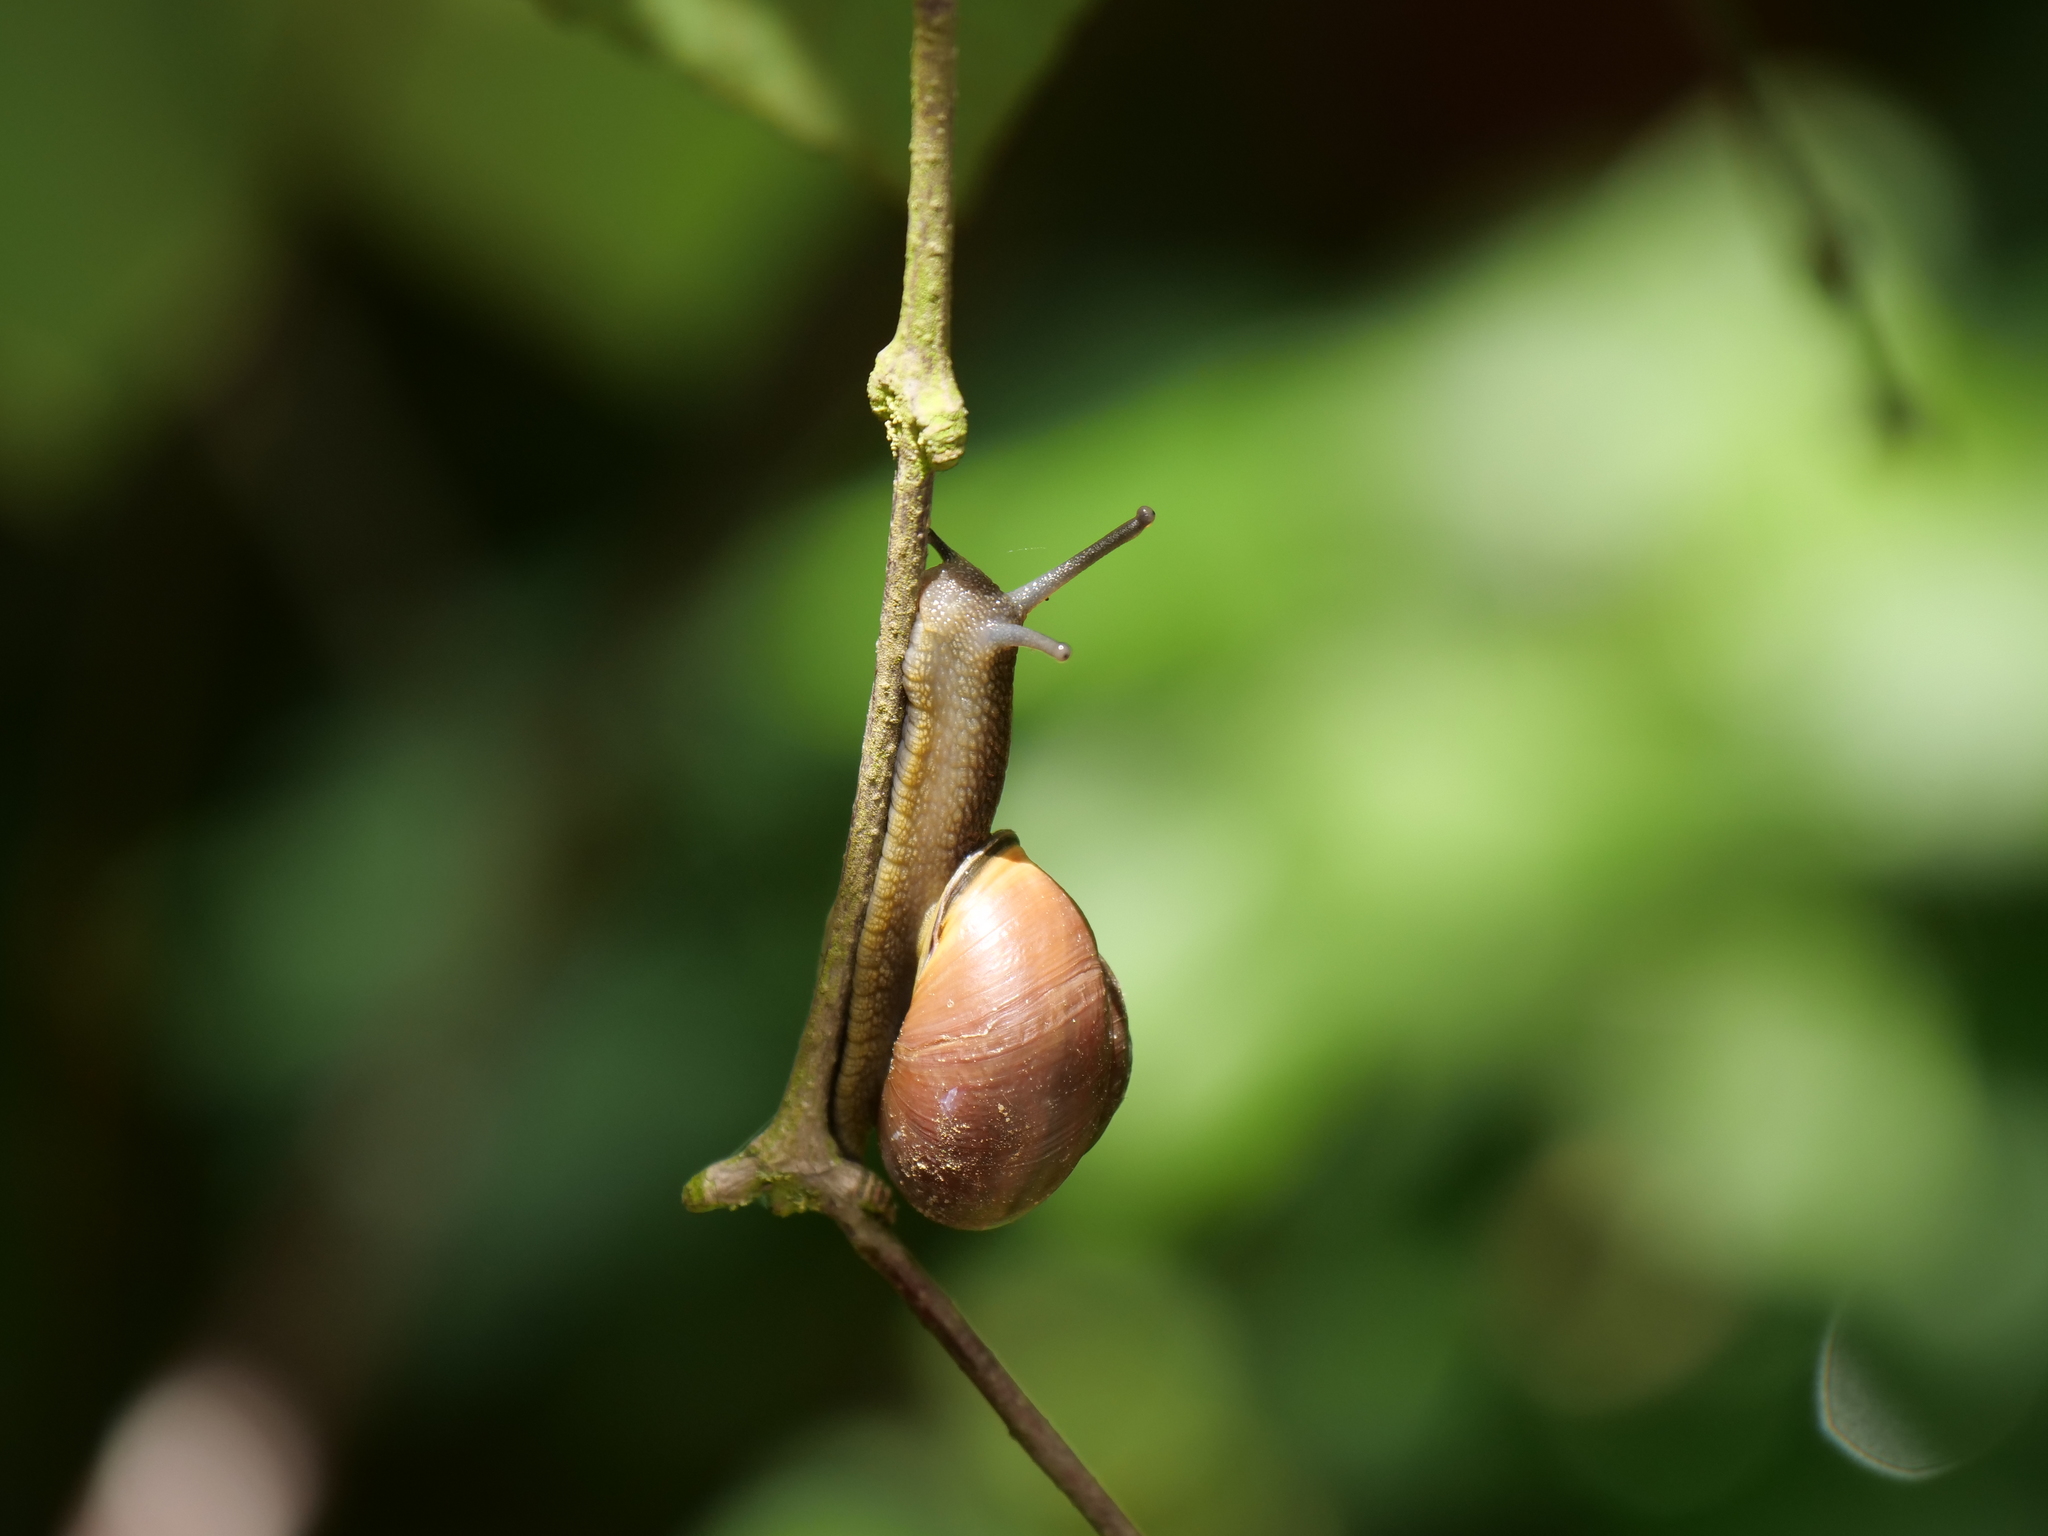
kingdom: Animalia
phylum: Mollusca
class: Gastropoda
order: Stylommatophora
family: Helicidae
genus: Cepaea
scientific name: Cepaea nemoralis
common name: Grovesnail
